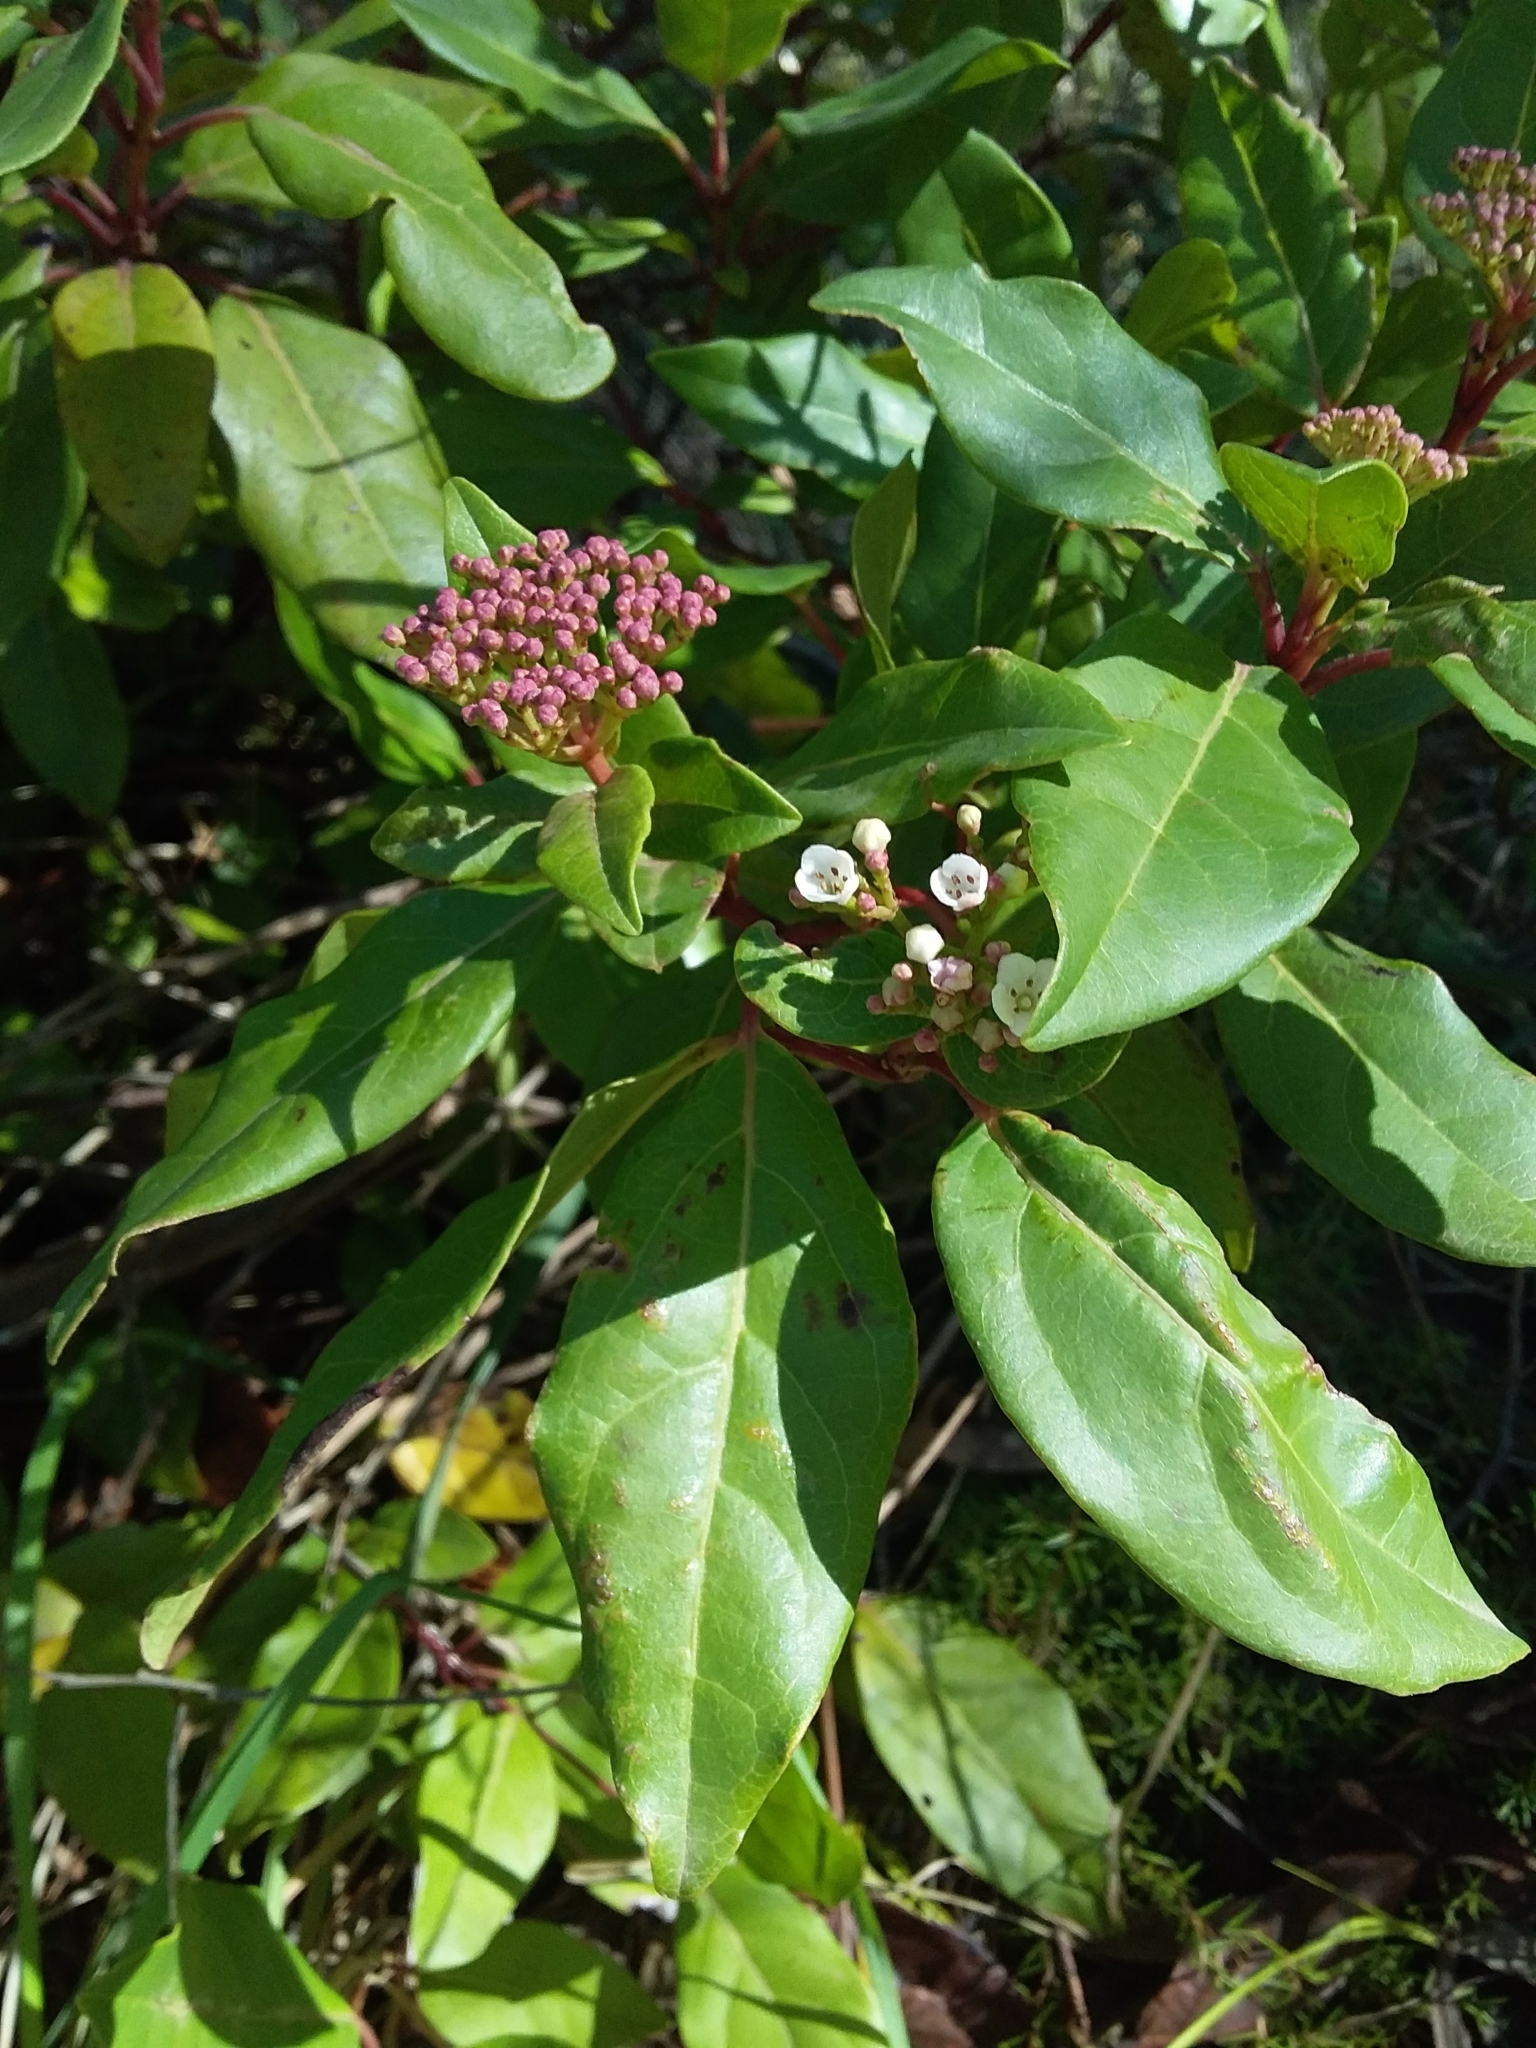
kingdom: Plantae
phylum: Tracheophyta
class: Magnoliopsida
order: Dipsacales
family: Viburnaceae
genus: Viburnum
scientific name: Viburnum tinus
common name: Laurustinus
